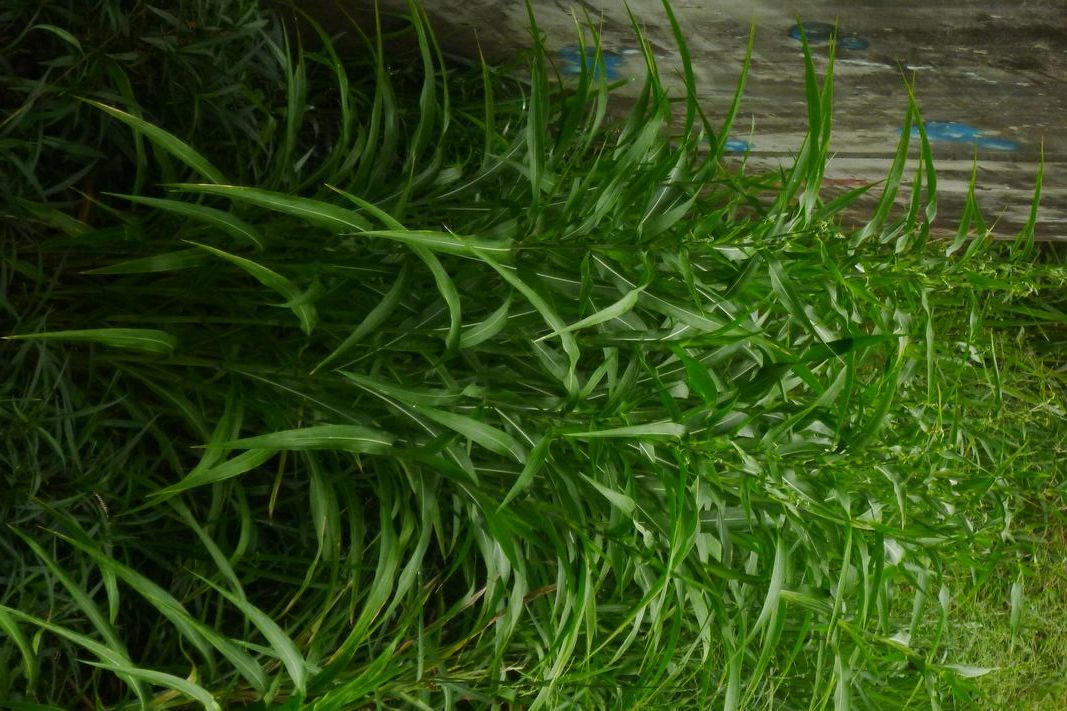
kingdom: Plantae
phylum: Tracheophyta
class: Liliopsida
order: Poales
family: Poaceae
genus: Coix
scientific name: Coix lacryma-jobi
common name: Job's tears
